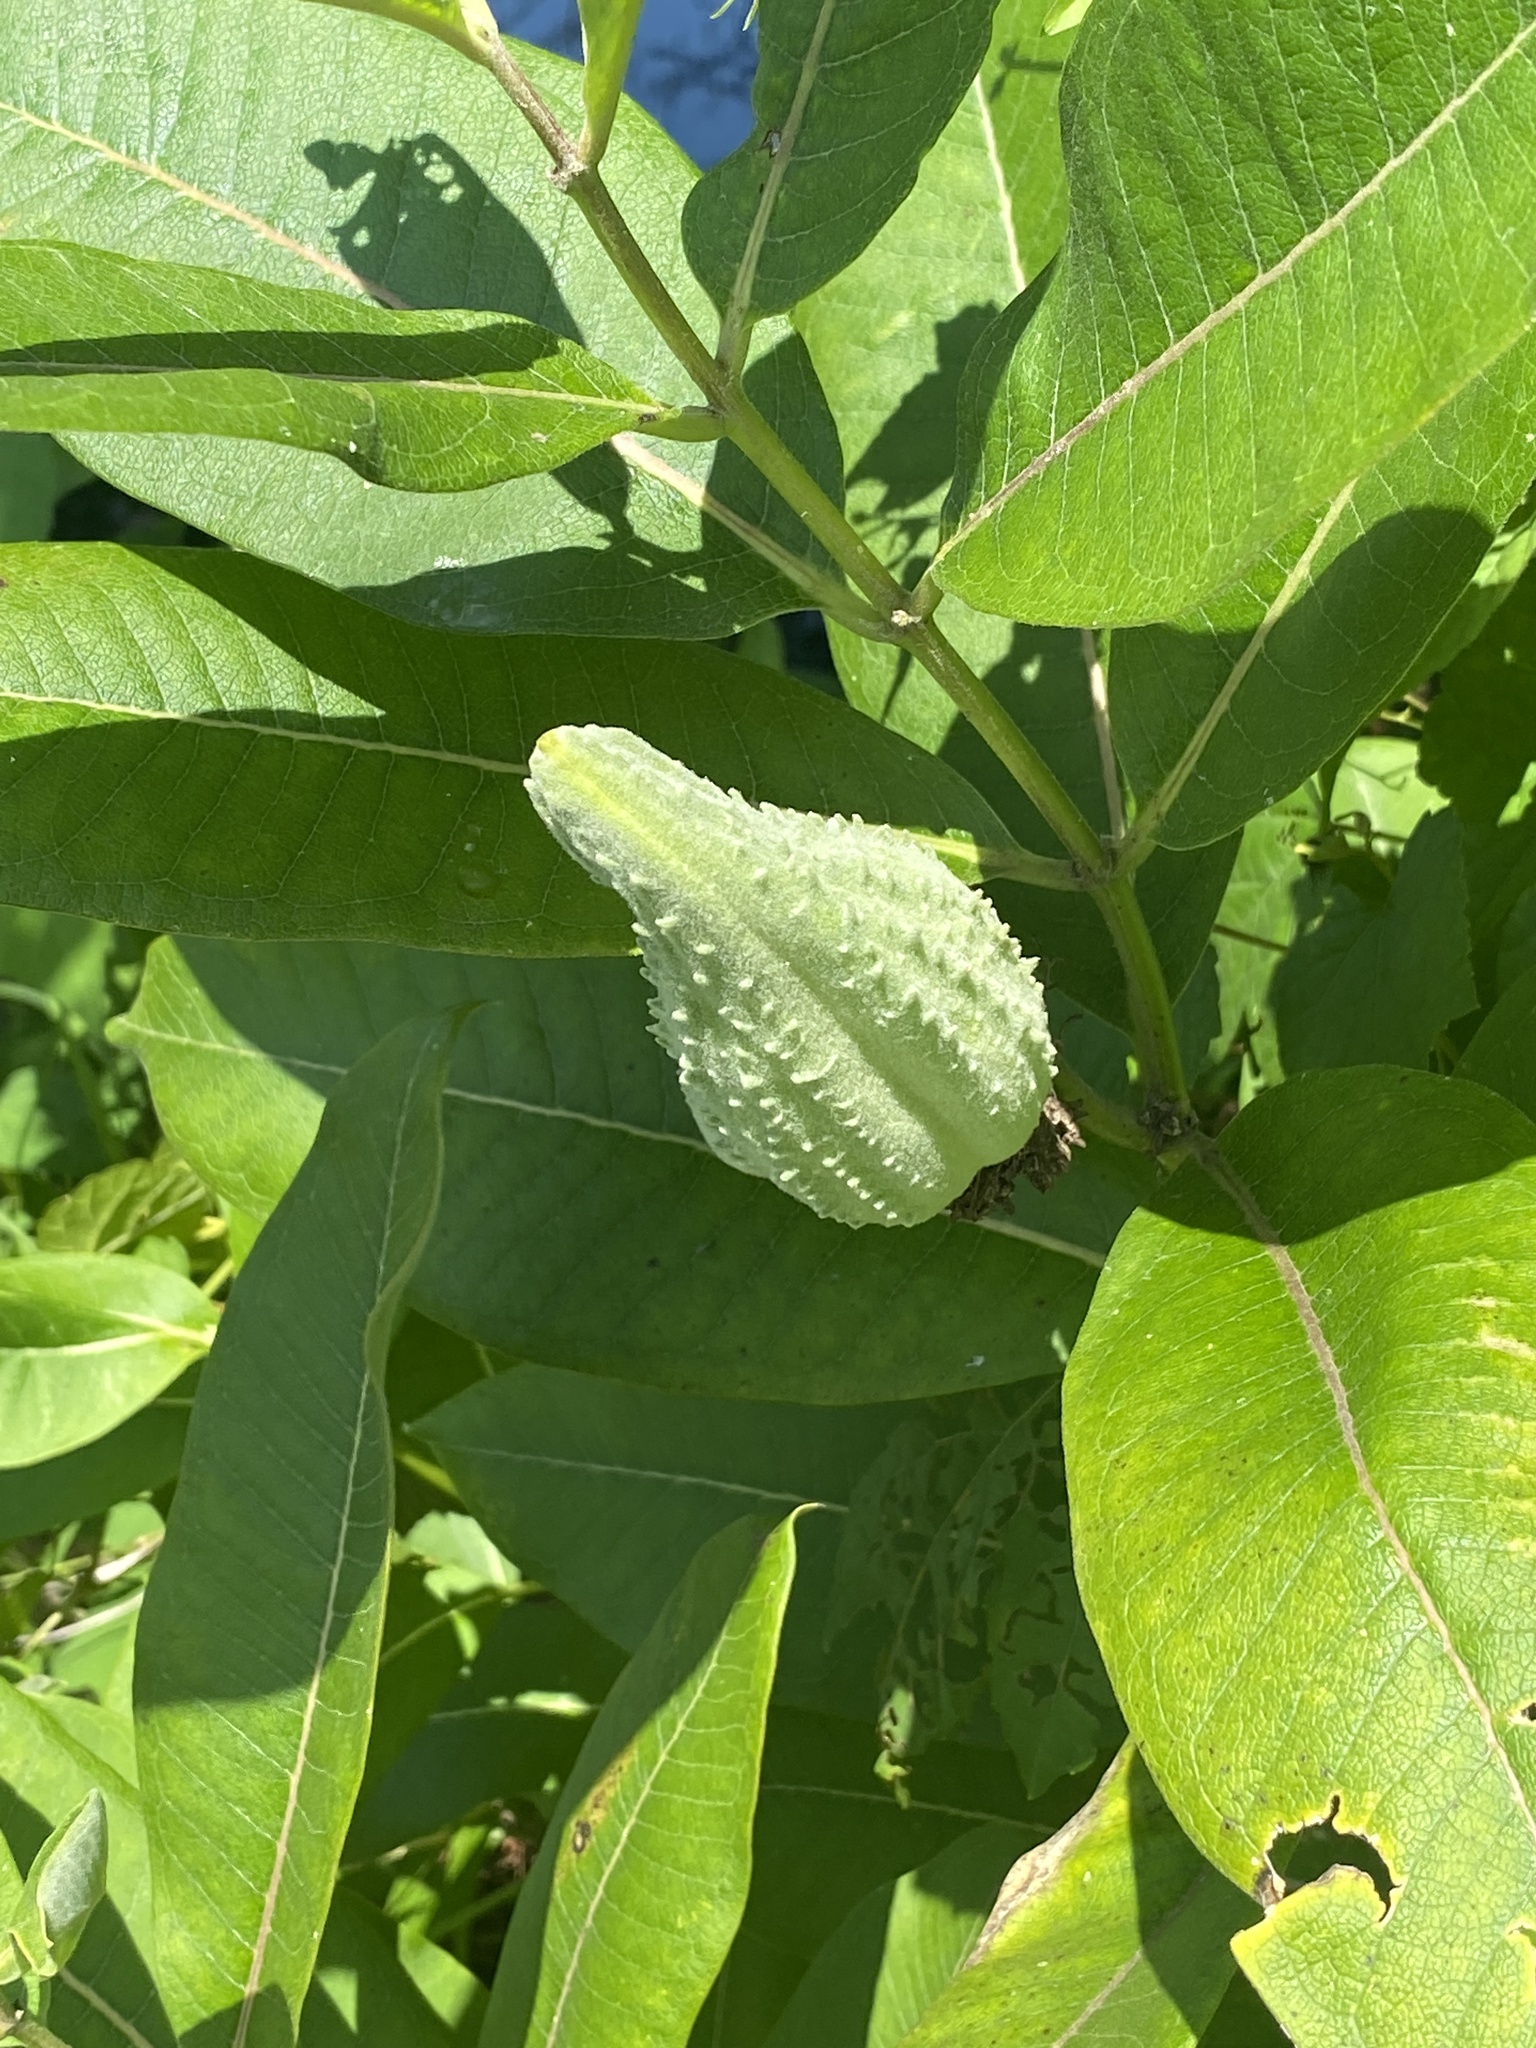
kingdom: Plantae
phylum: Tracheophyta
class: Magnoliopsida
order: Gentianales
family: Apocynaceae
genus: Asclepias
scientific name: Asclepias syriaca
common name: Common milkweed
